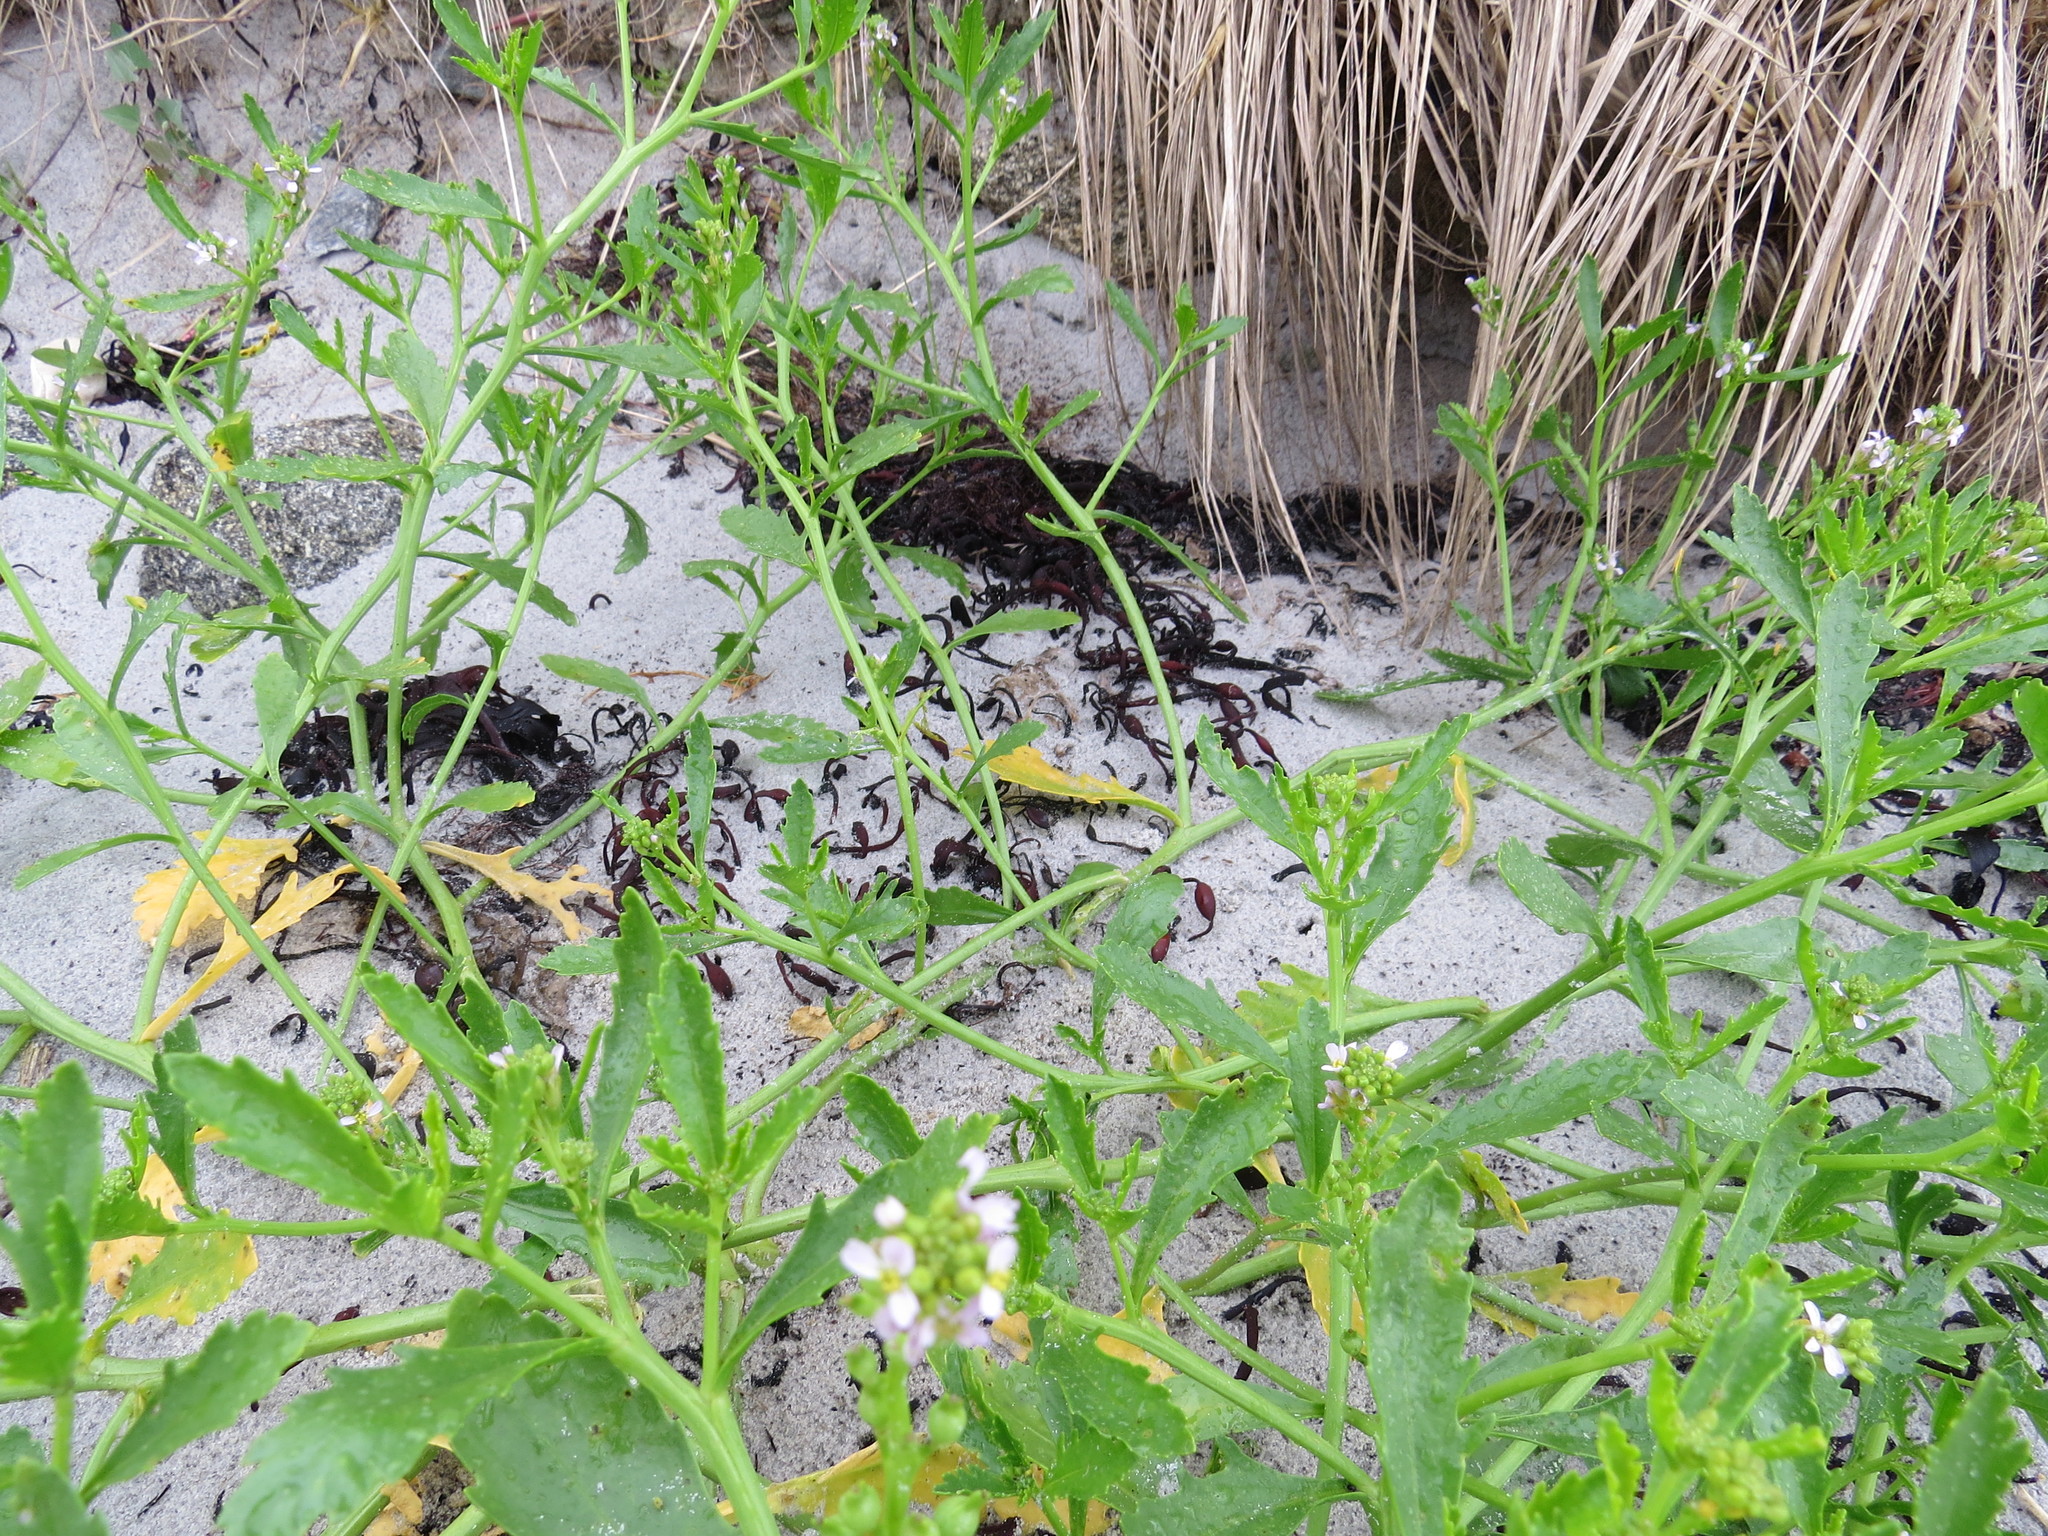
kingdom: Plantae
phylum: Tracheophyta
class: Magnoliopsida
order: Brassicales
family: Brassicaceae
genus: Cakile
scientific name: Cakile edentula
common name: American sea rocket
